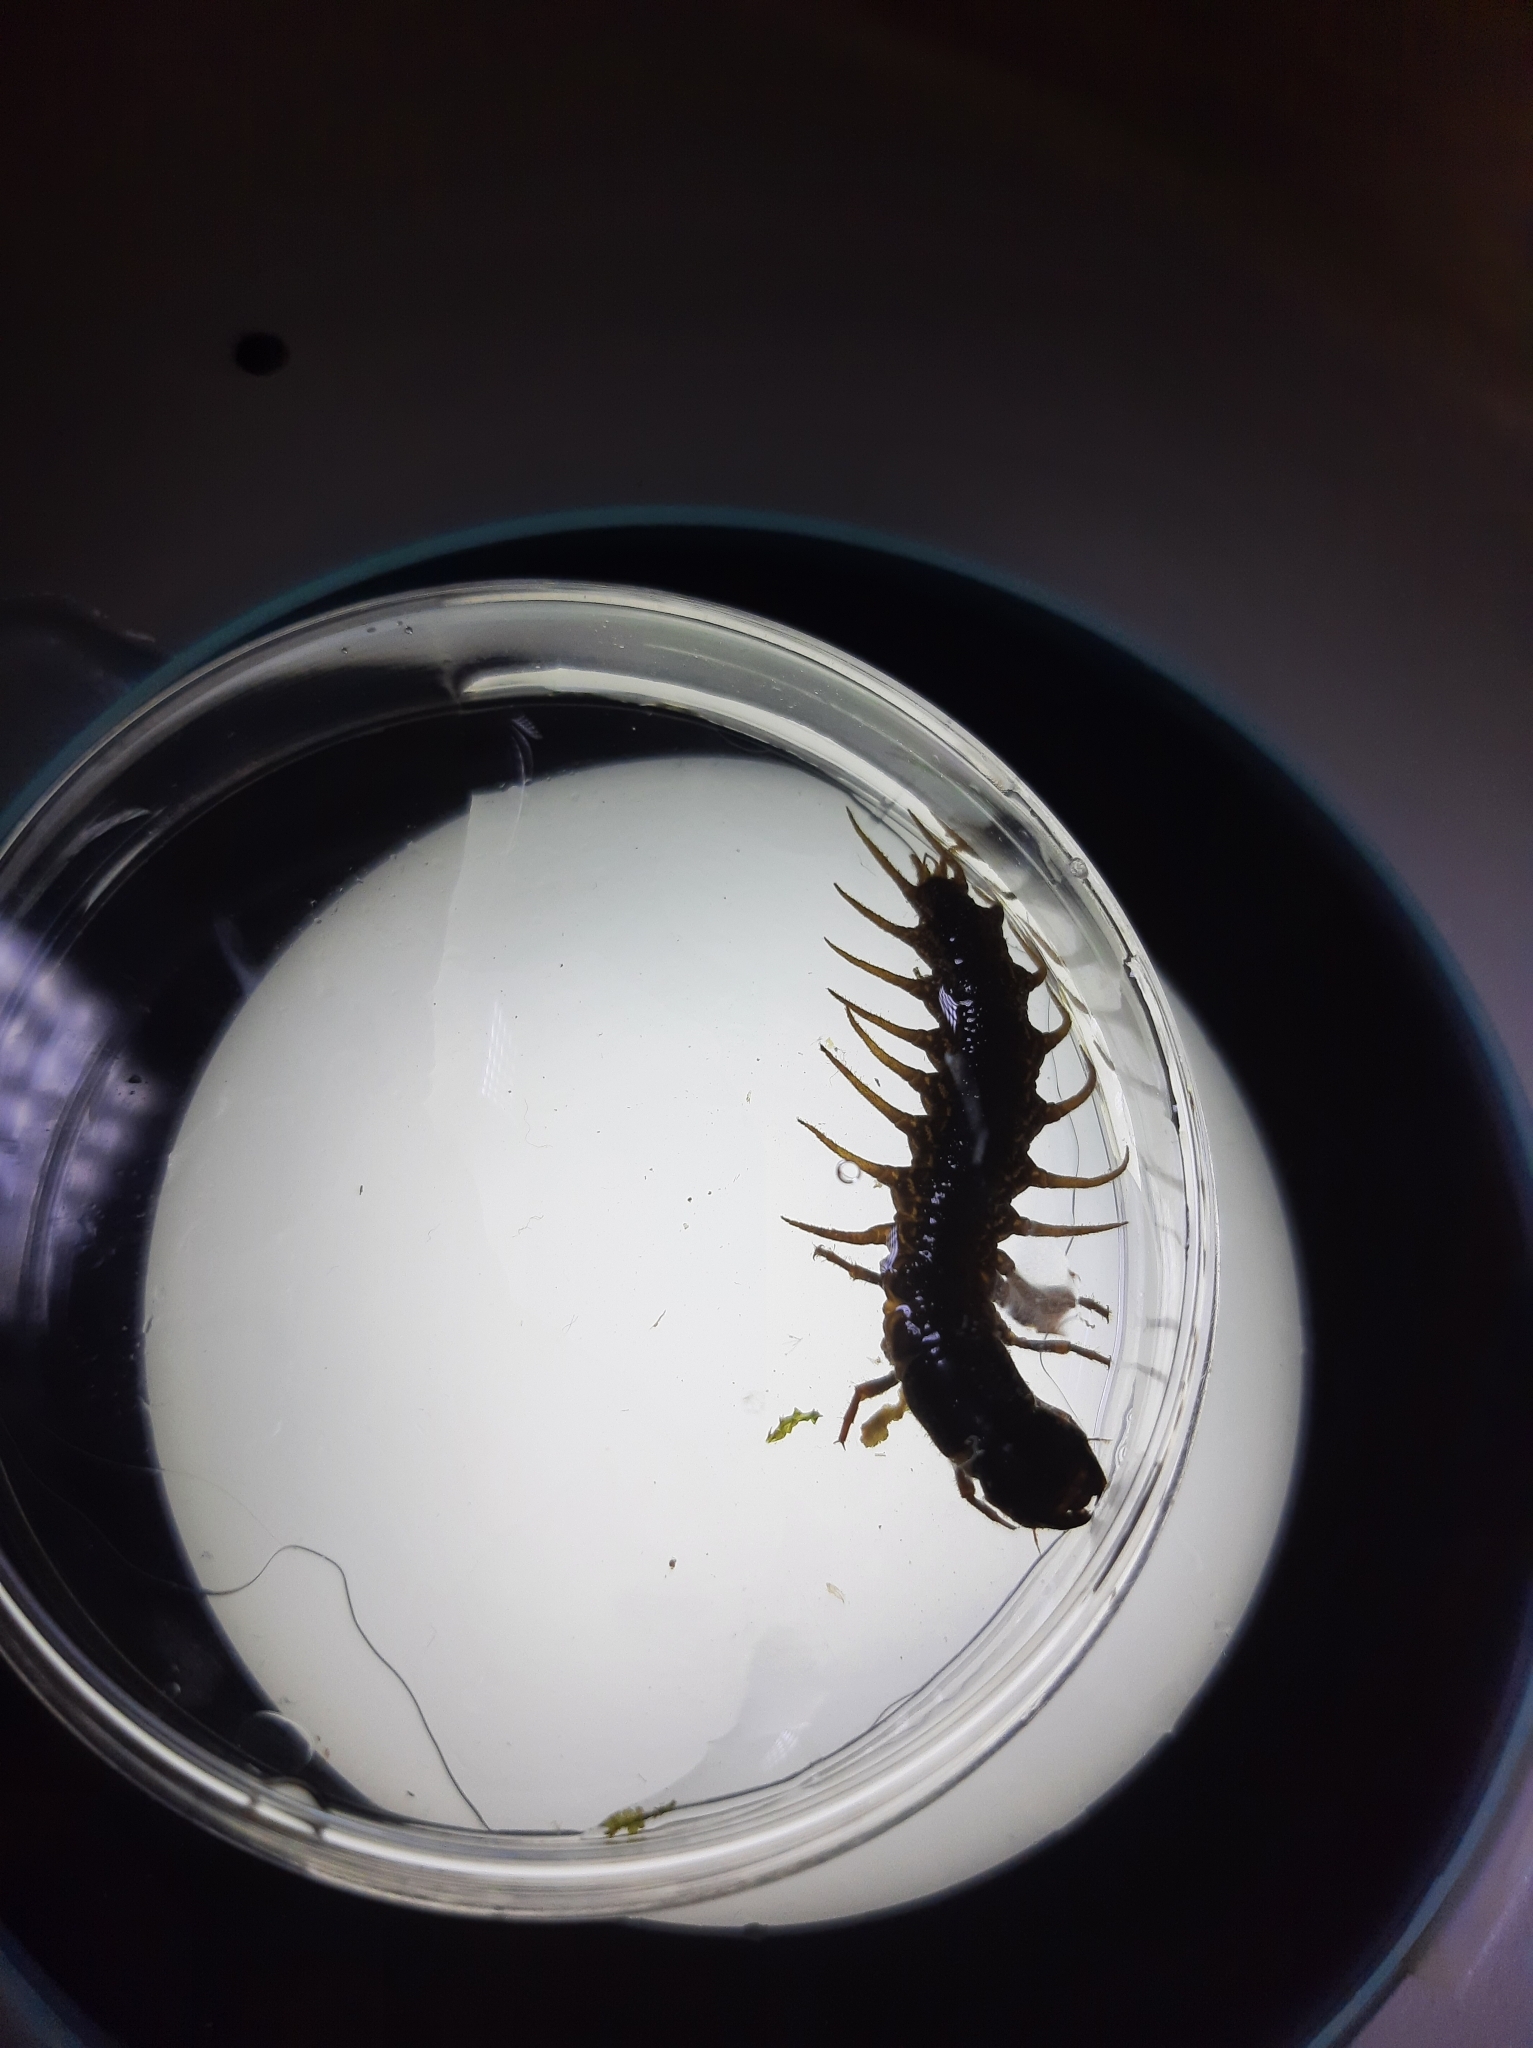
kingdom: Animalia
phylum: Arthropoda
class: Insecta
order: Megaloptera
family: Corydalidae
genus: Archichauliodes
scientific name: Archichauliodes diversus
